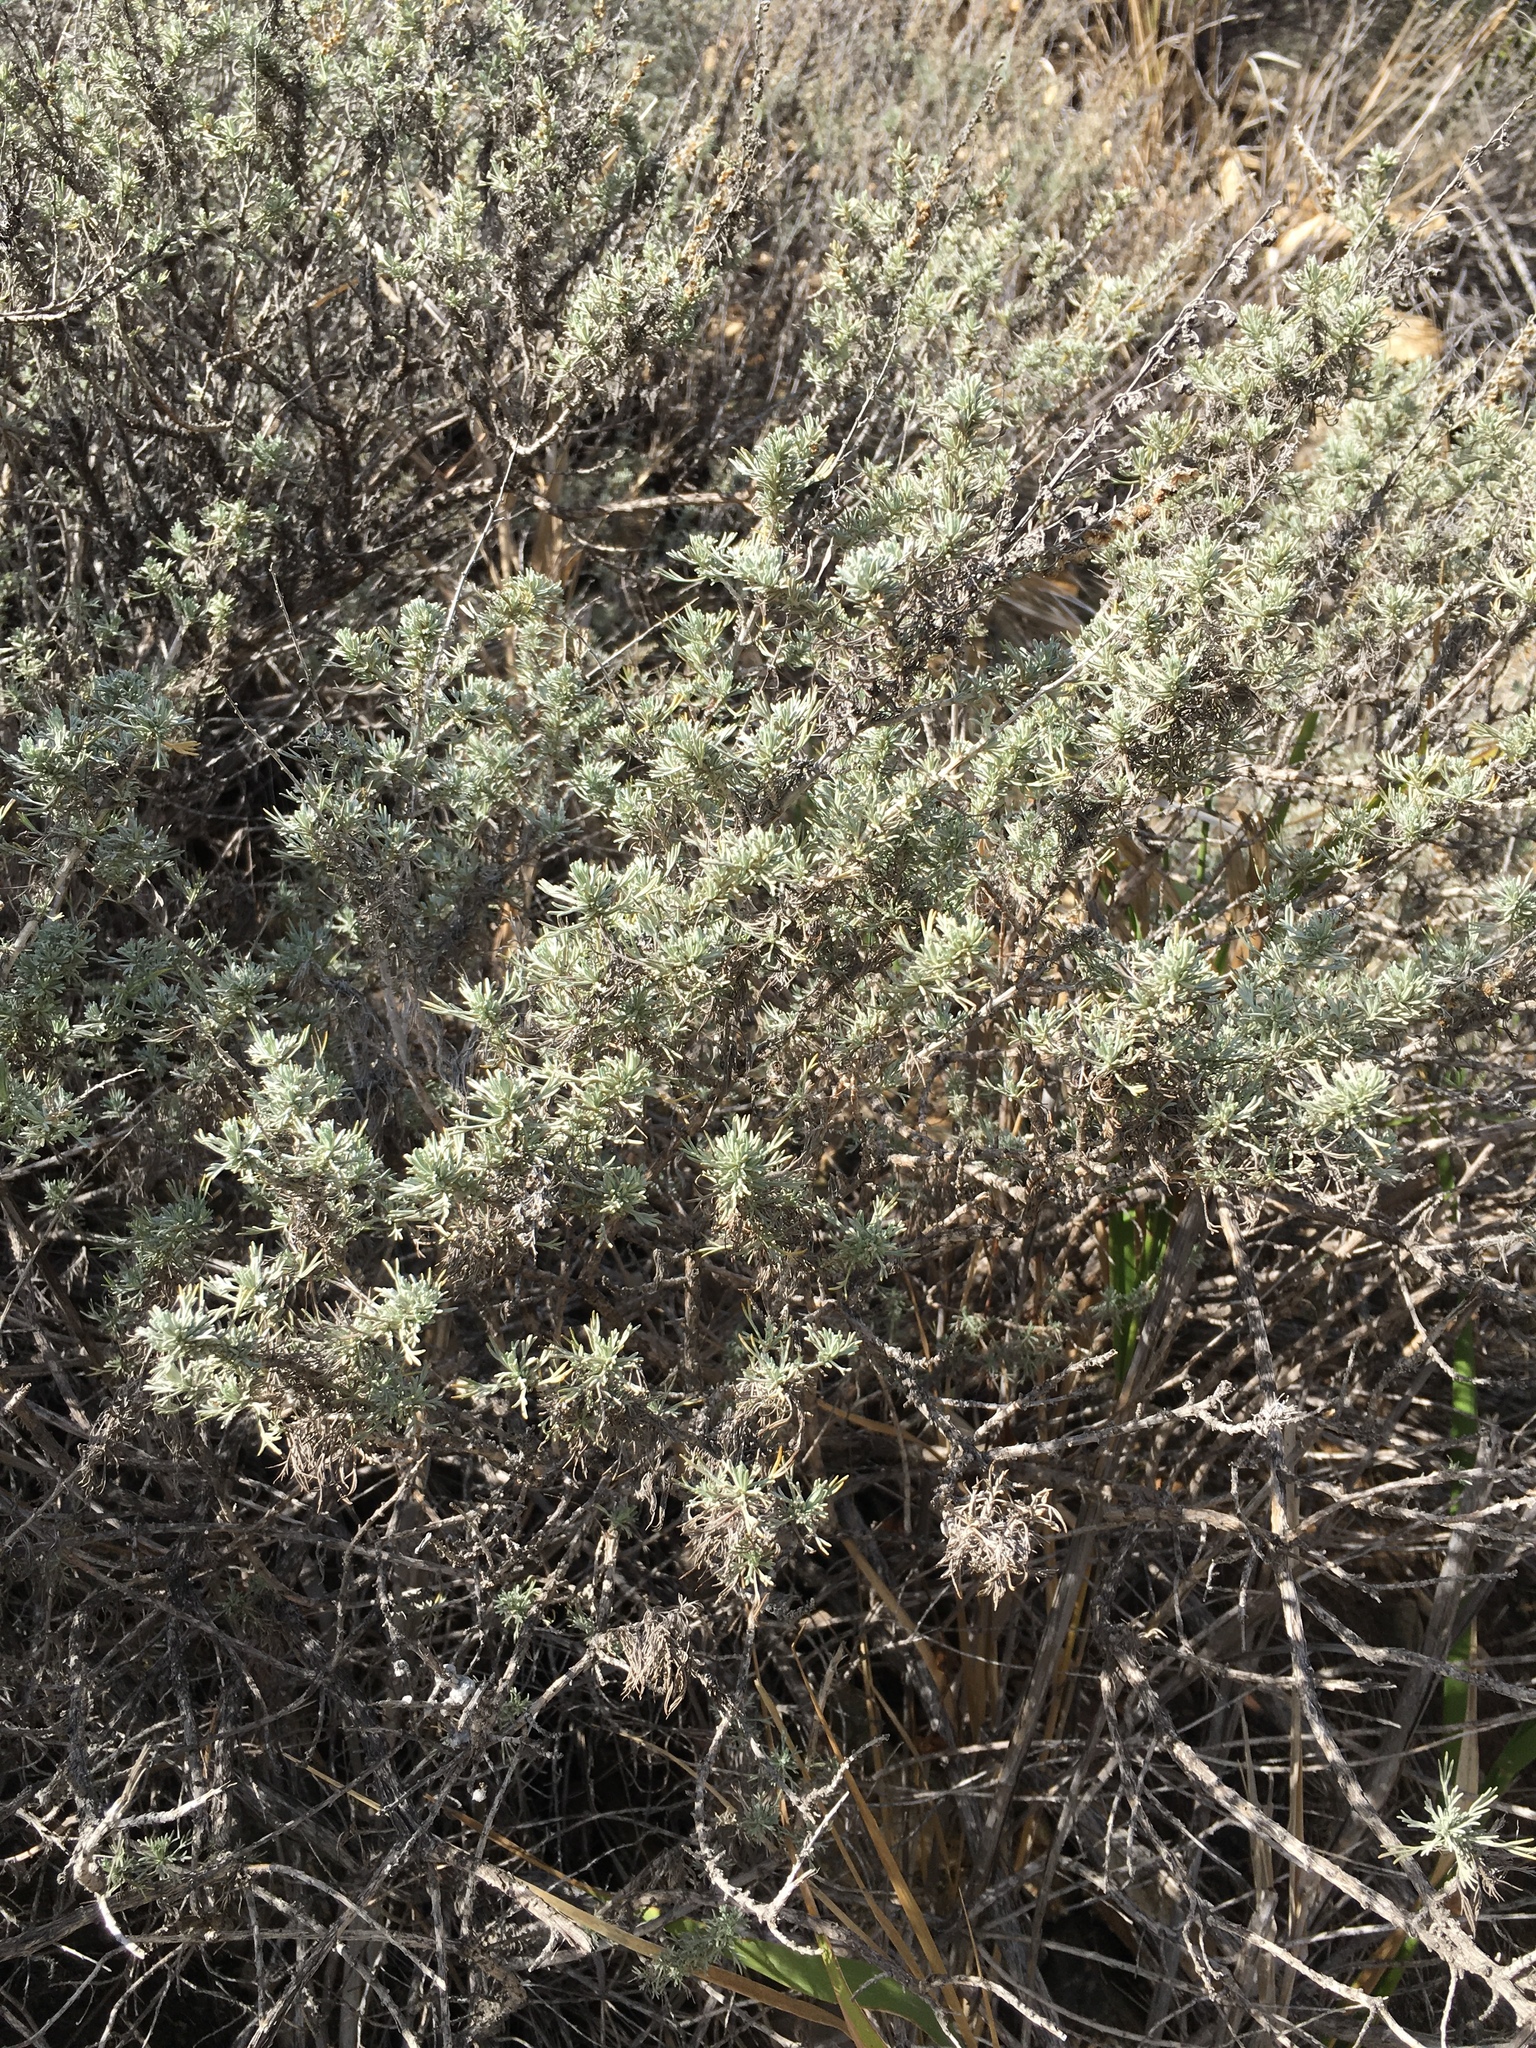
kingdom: Plantae
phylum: Tracheophyta
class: Magnoliopsida
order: Asterales
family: Asteraceae
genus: Artemisia
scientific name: Artemisia californica
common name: California sagebrush
